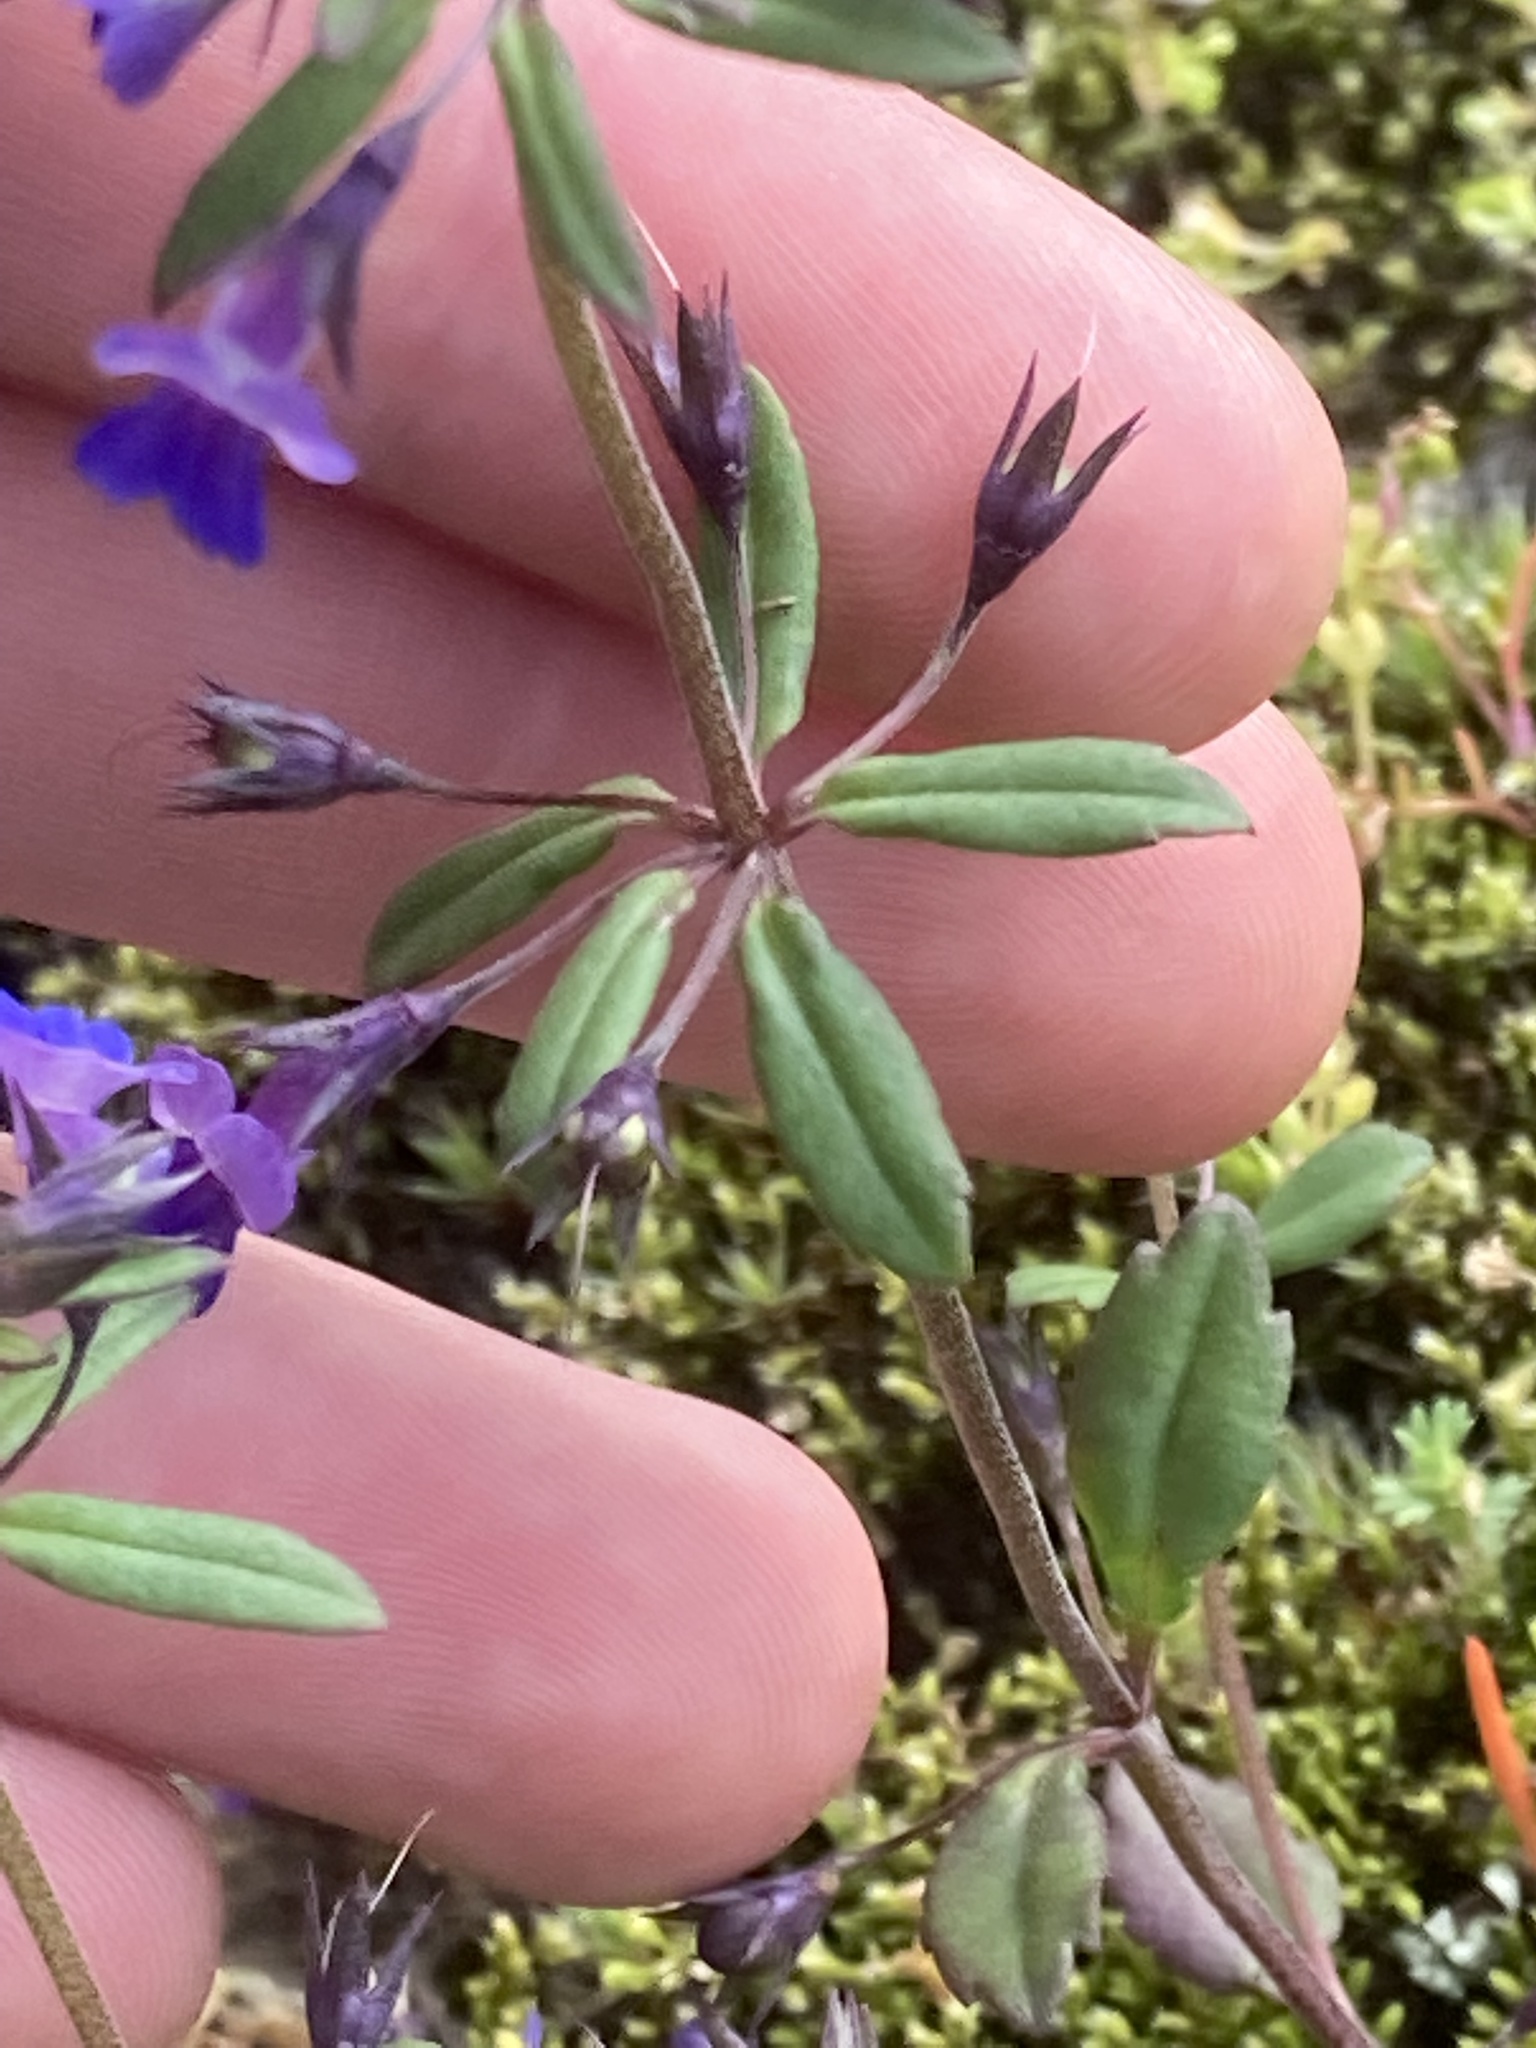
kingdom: Plantae
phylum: Tracheophyta
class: Magnoliopsida
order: Lamiales
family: Plantaginaceae
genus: Collinsia
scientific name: Collinsia parviflora
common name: Blue-lips
